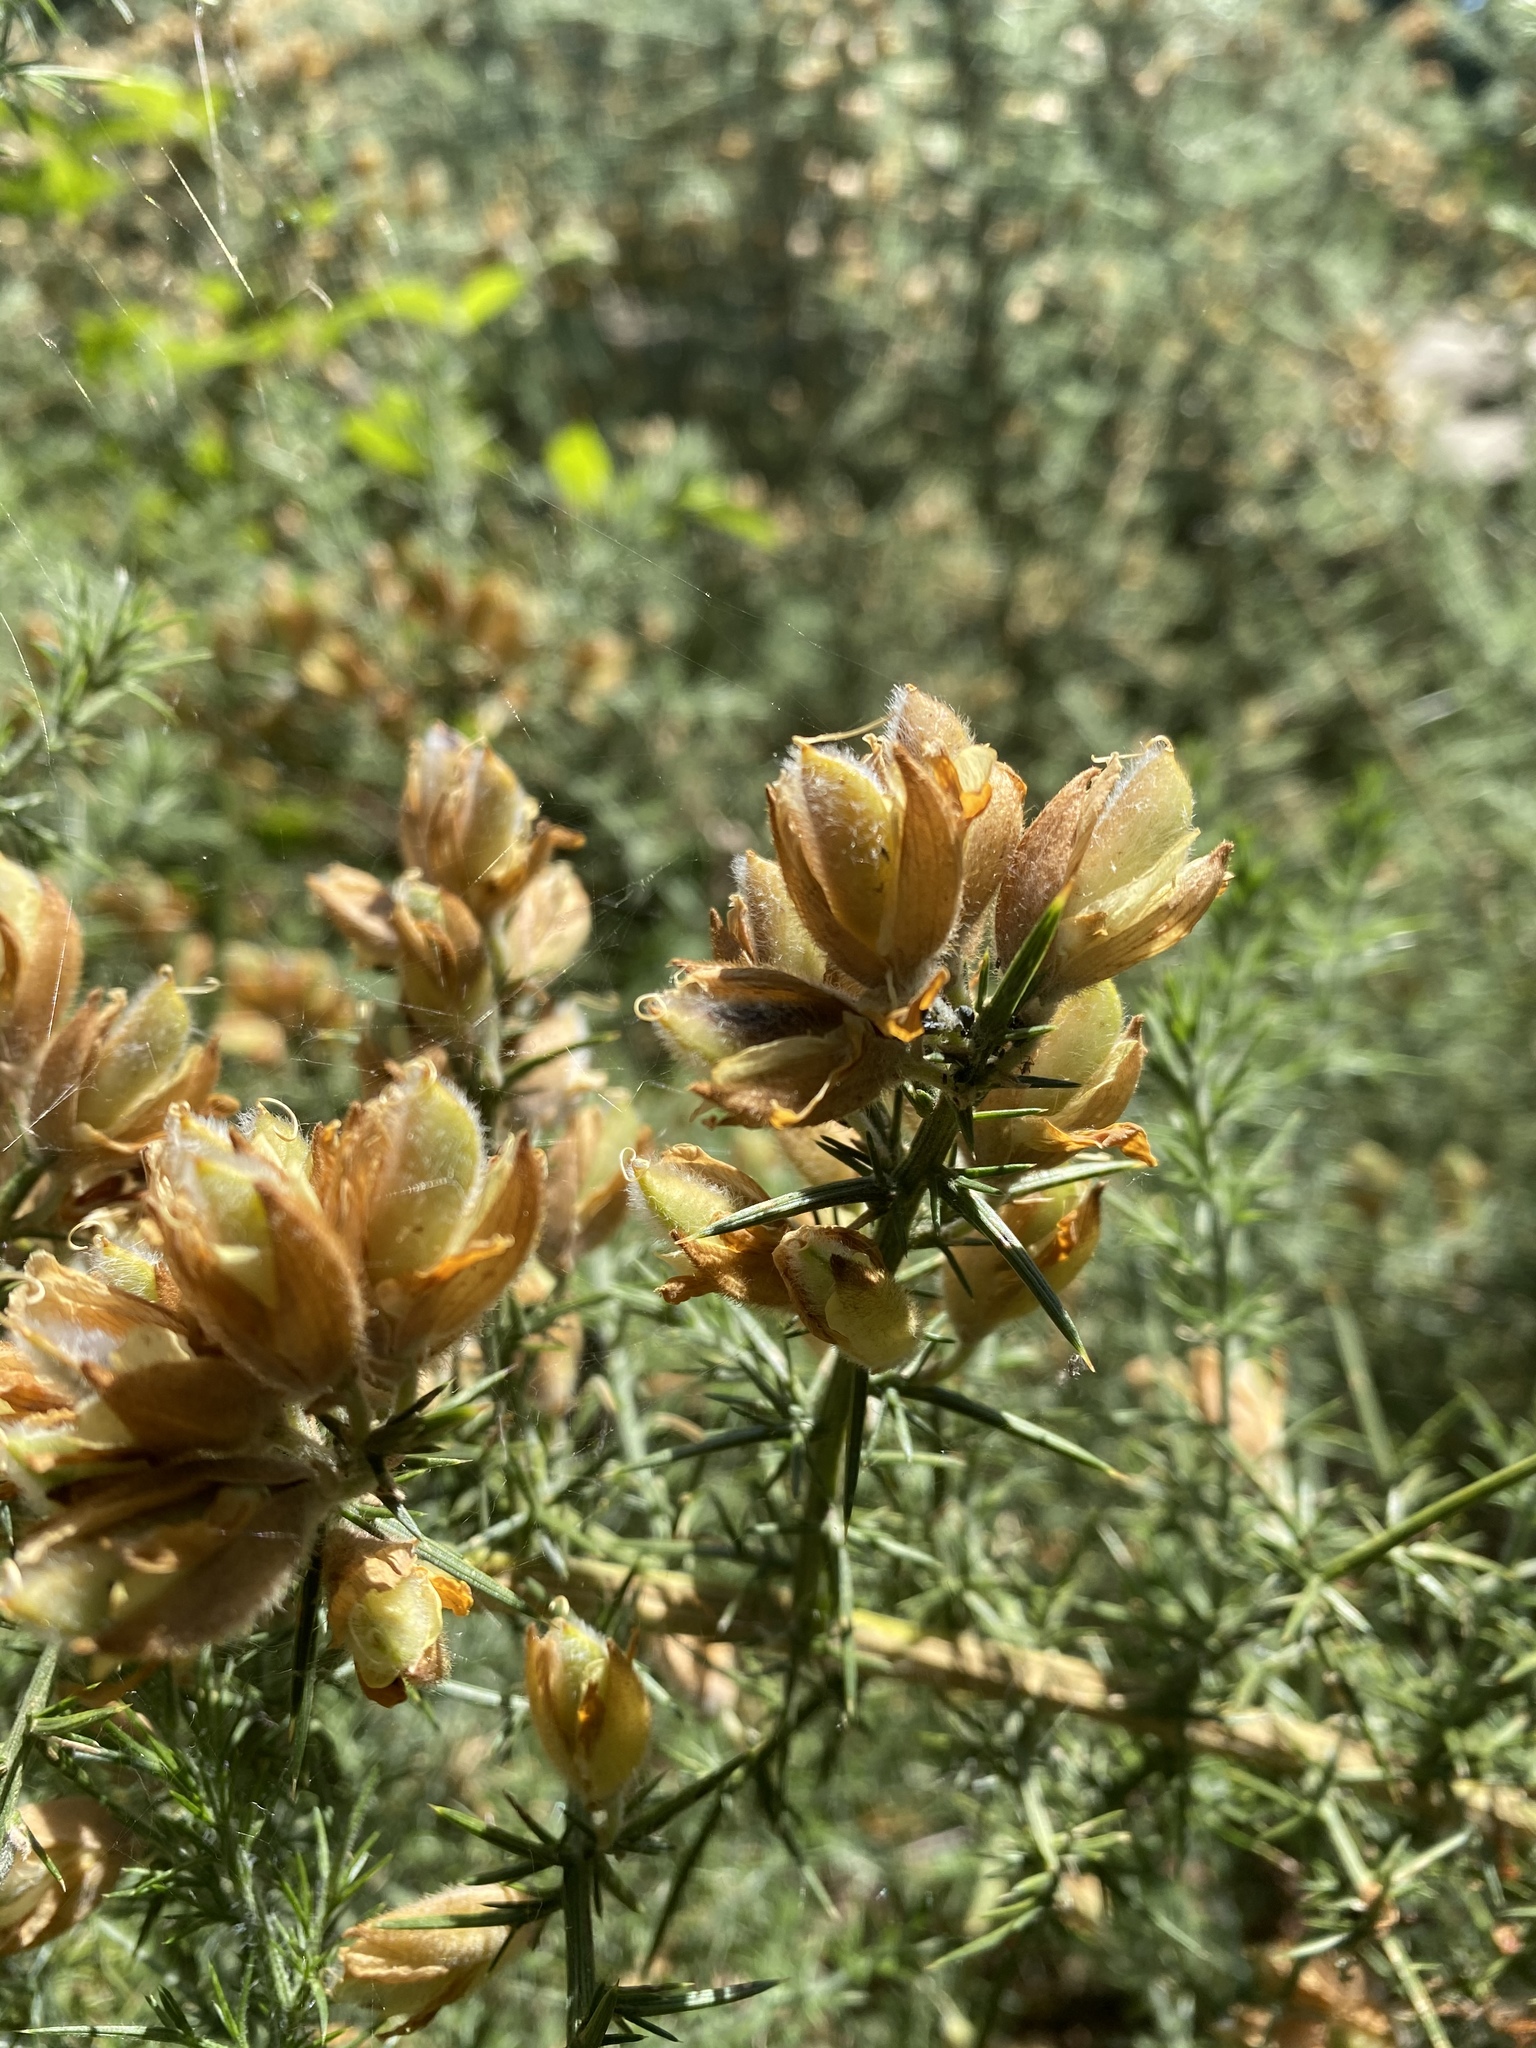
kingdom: Plantae
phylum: Tracheophyta
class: Magnoliopsida
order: Fabales
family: Fabaceae
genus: Ulex
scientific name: Ulex europaeus
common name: Common gorse
